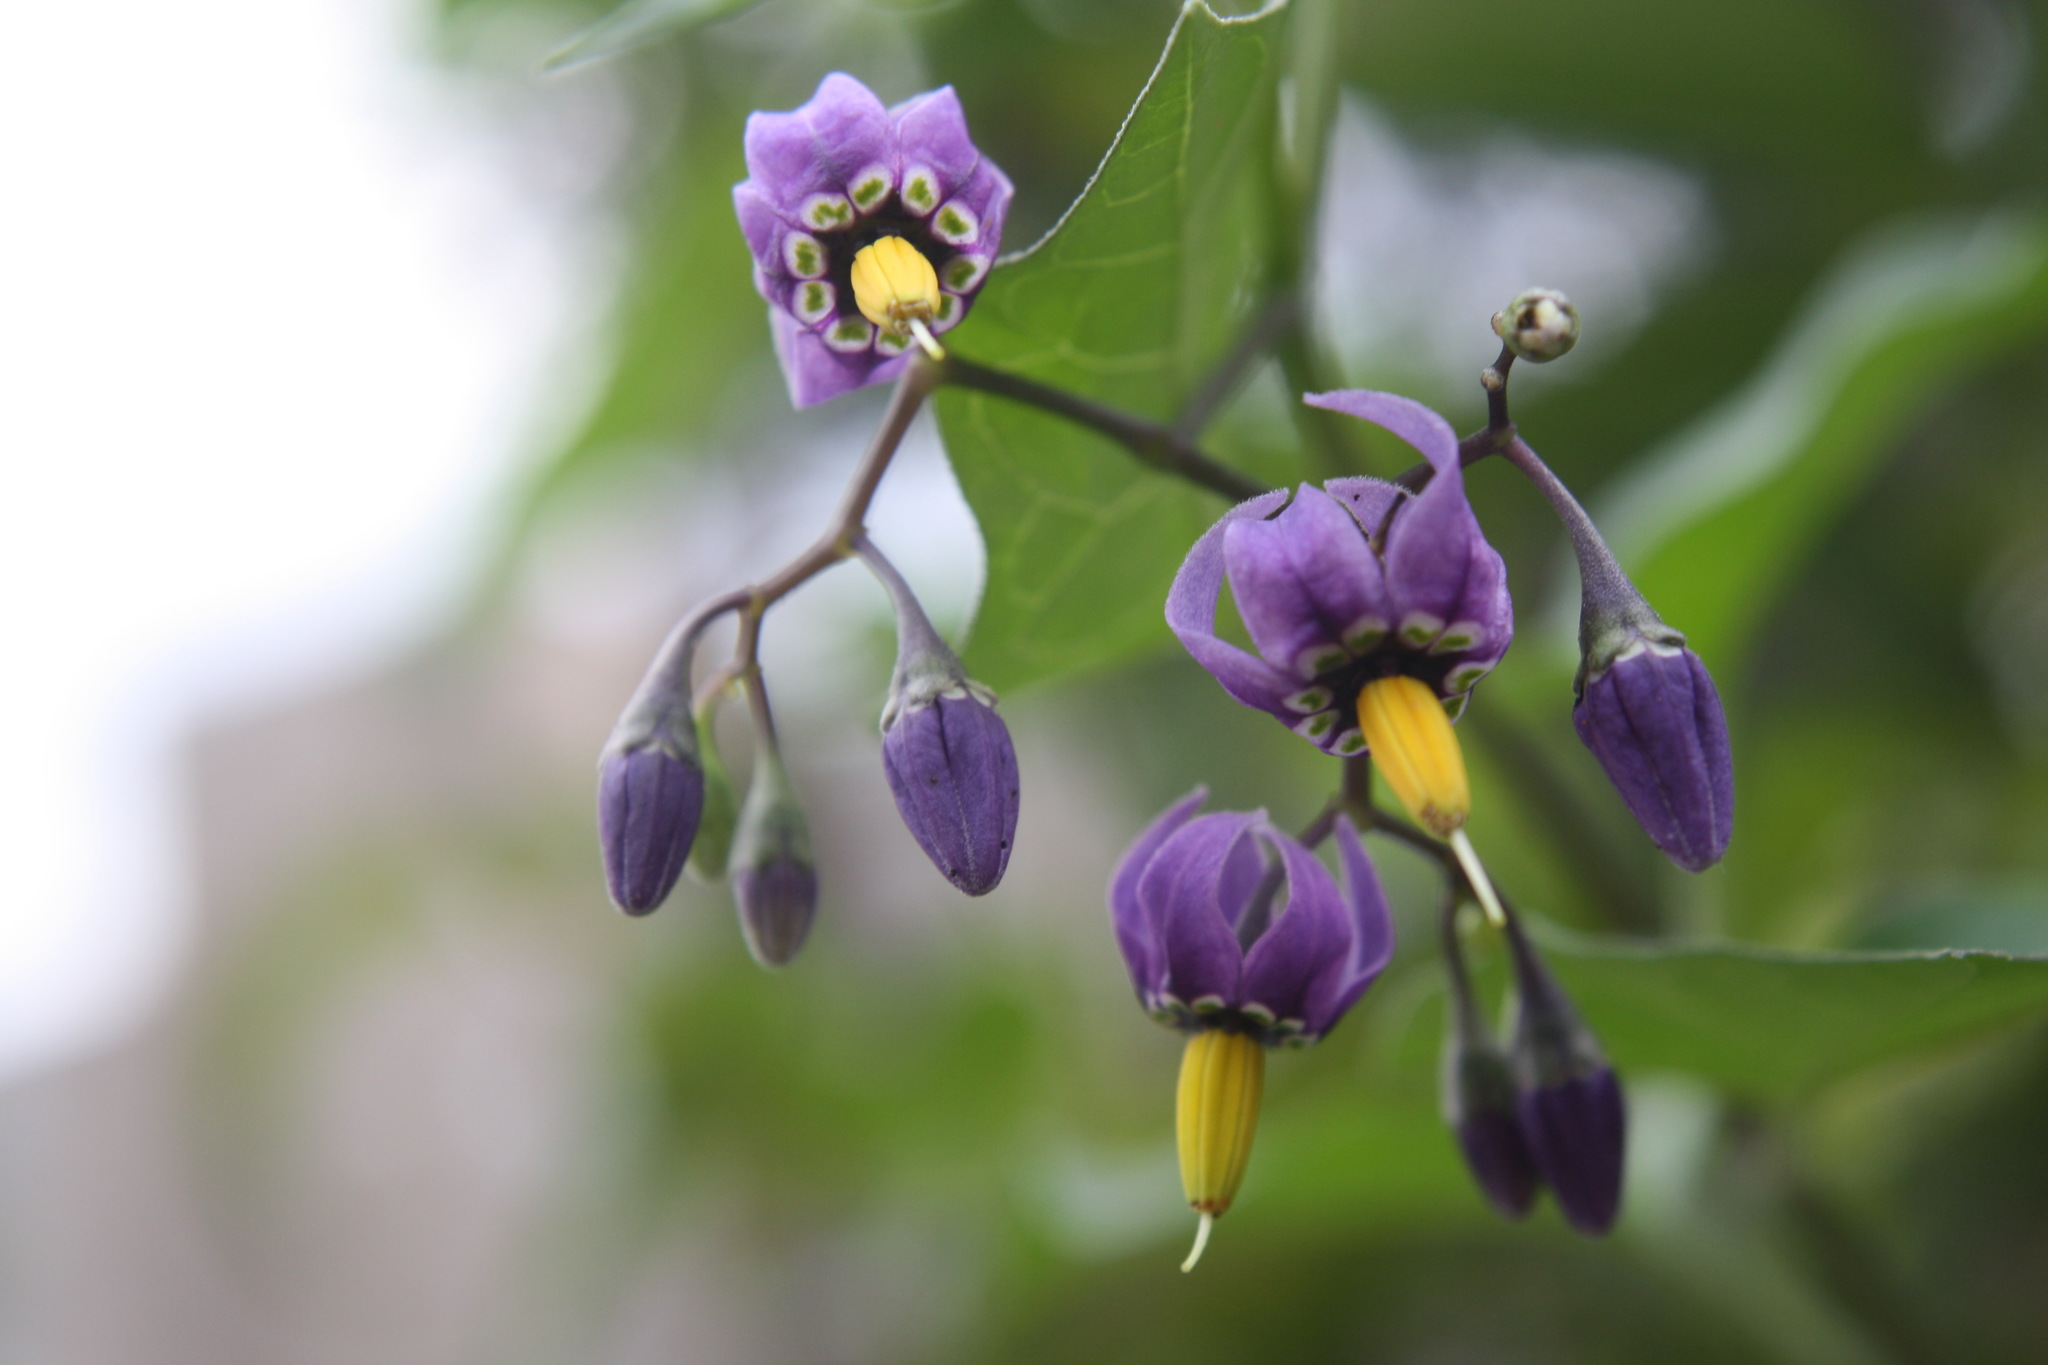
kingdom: Plantae
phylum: Tracheophyta
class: Magnoliopsida
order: Solanales
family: Solanaceae
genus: Solanum
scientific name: Solanum dulcamara
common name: Climbing nightshade
